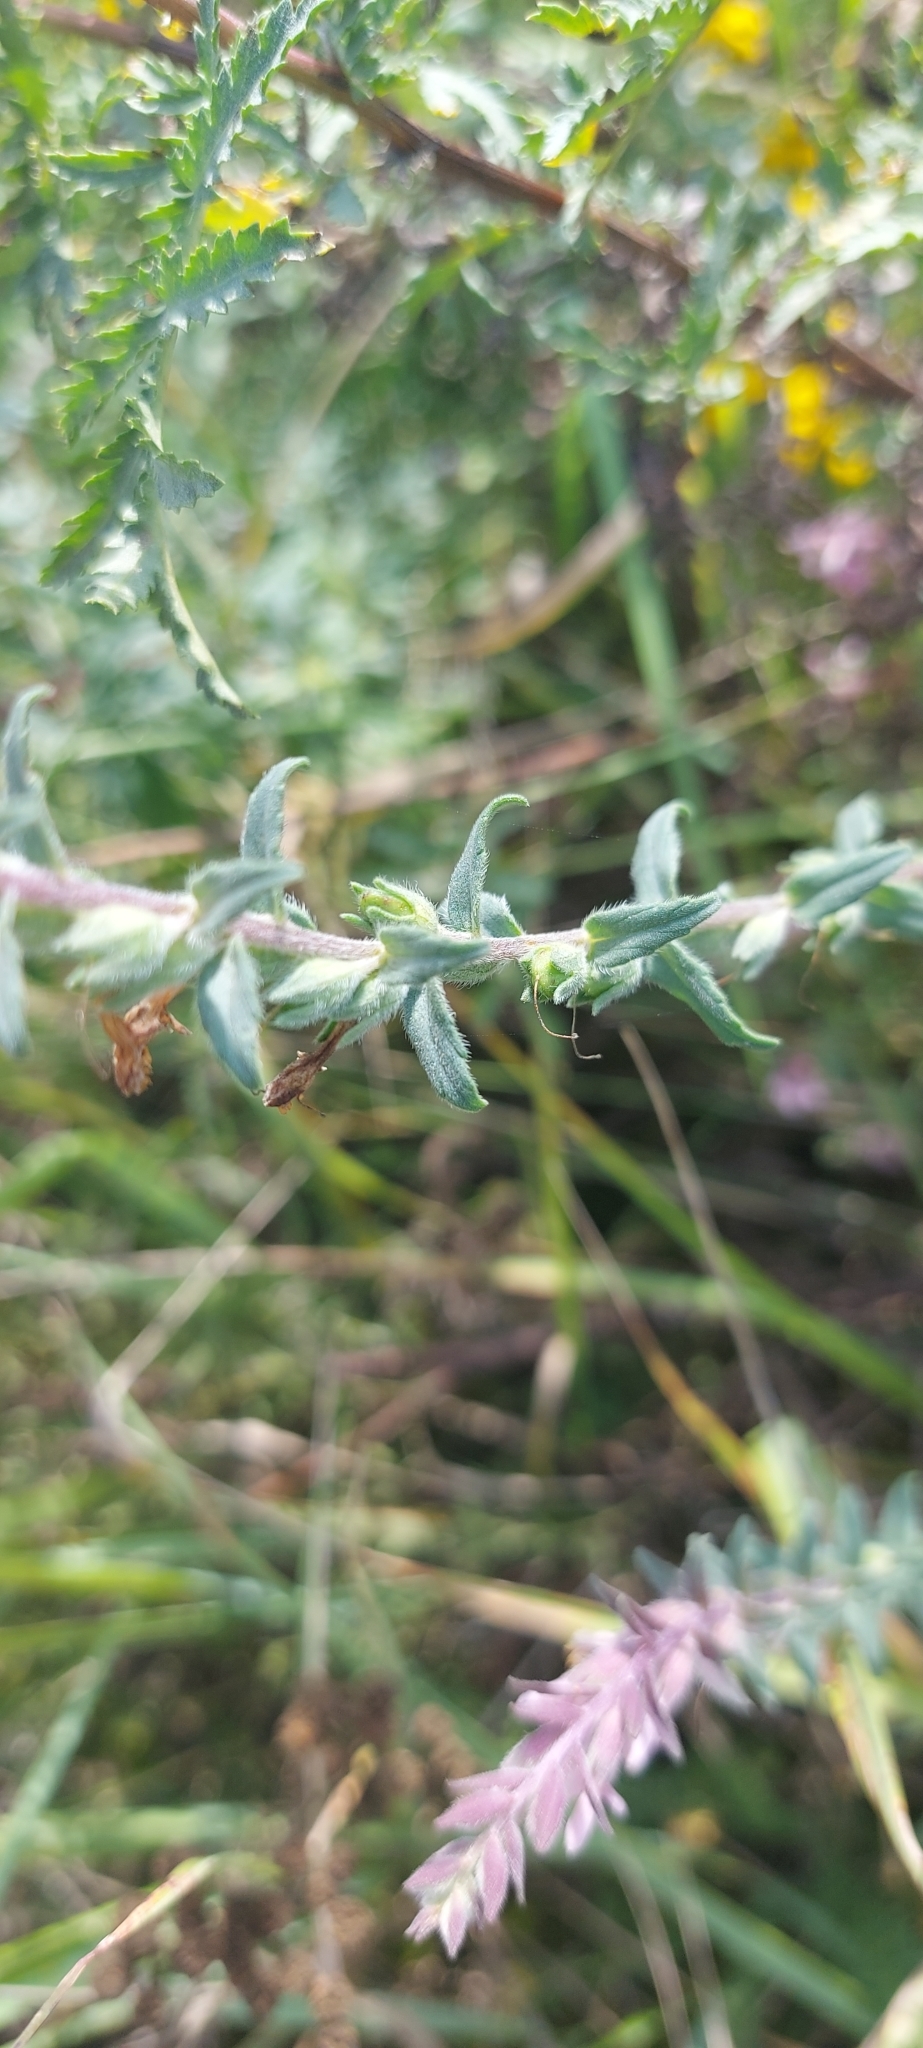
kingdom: Plantae
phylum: Tracheophyta
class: Magnoliopsida
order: Lamiales
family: Orobanchaceae
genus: Odontites
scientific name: Odontites vulgaris
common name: Broomrape
